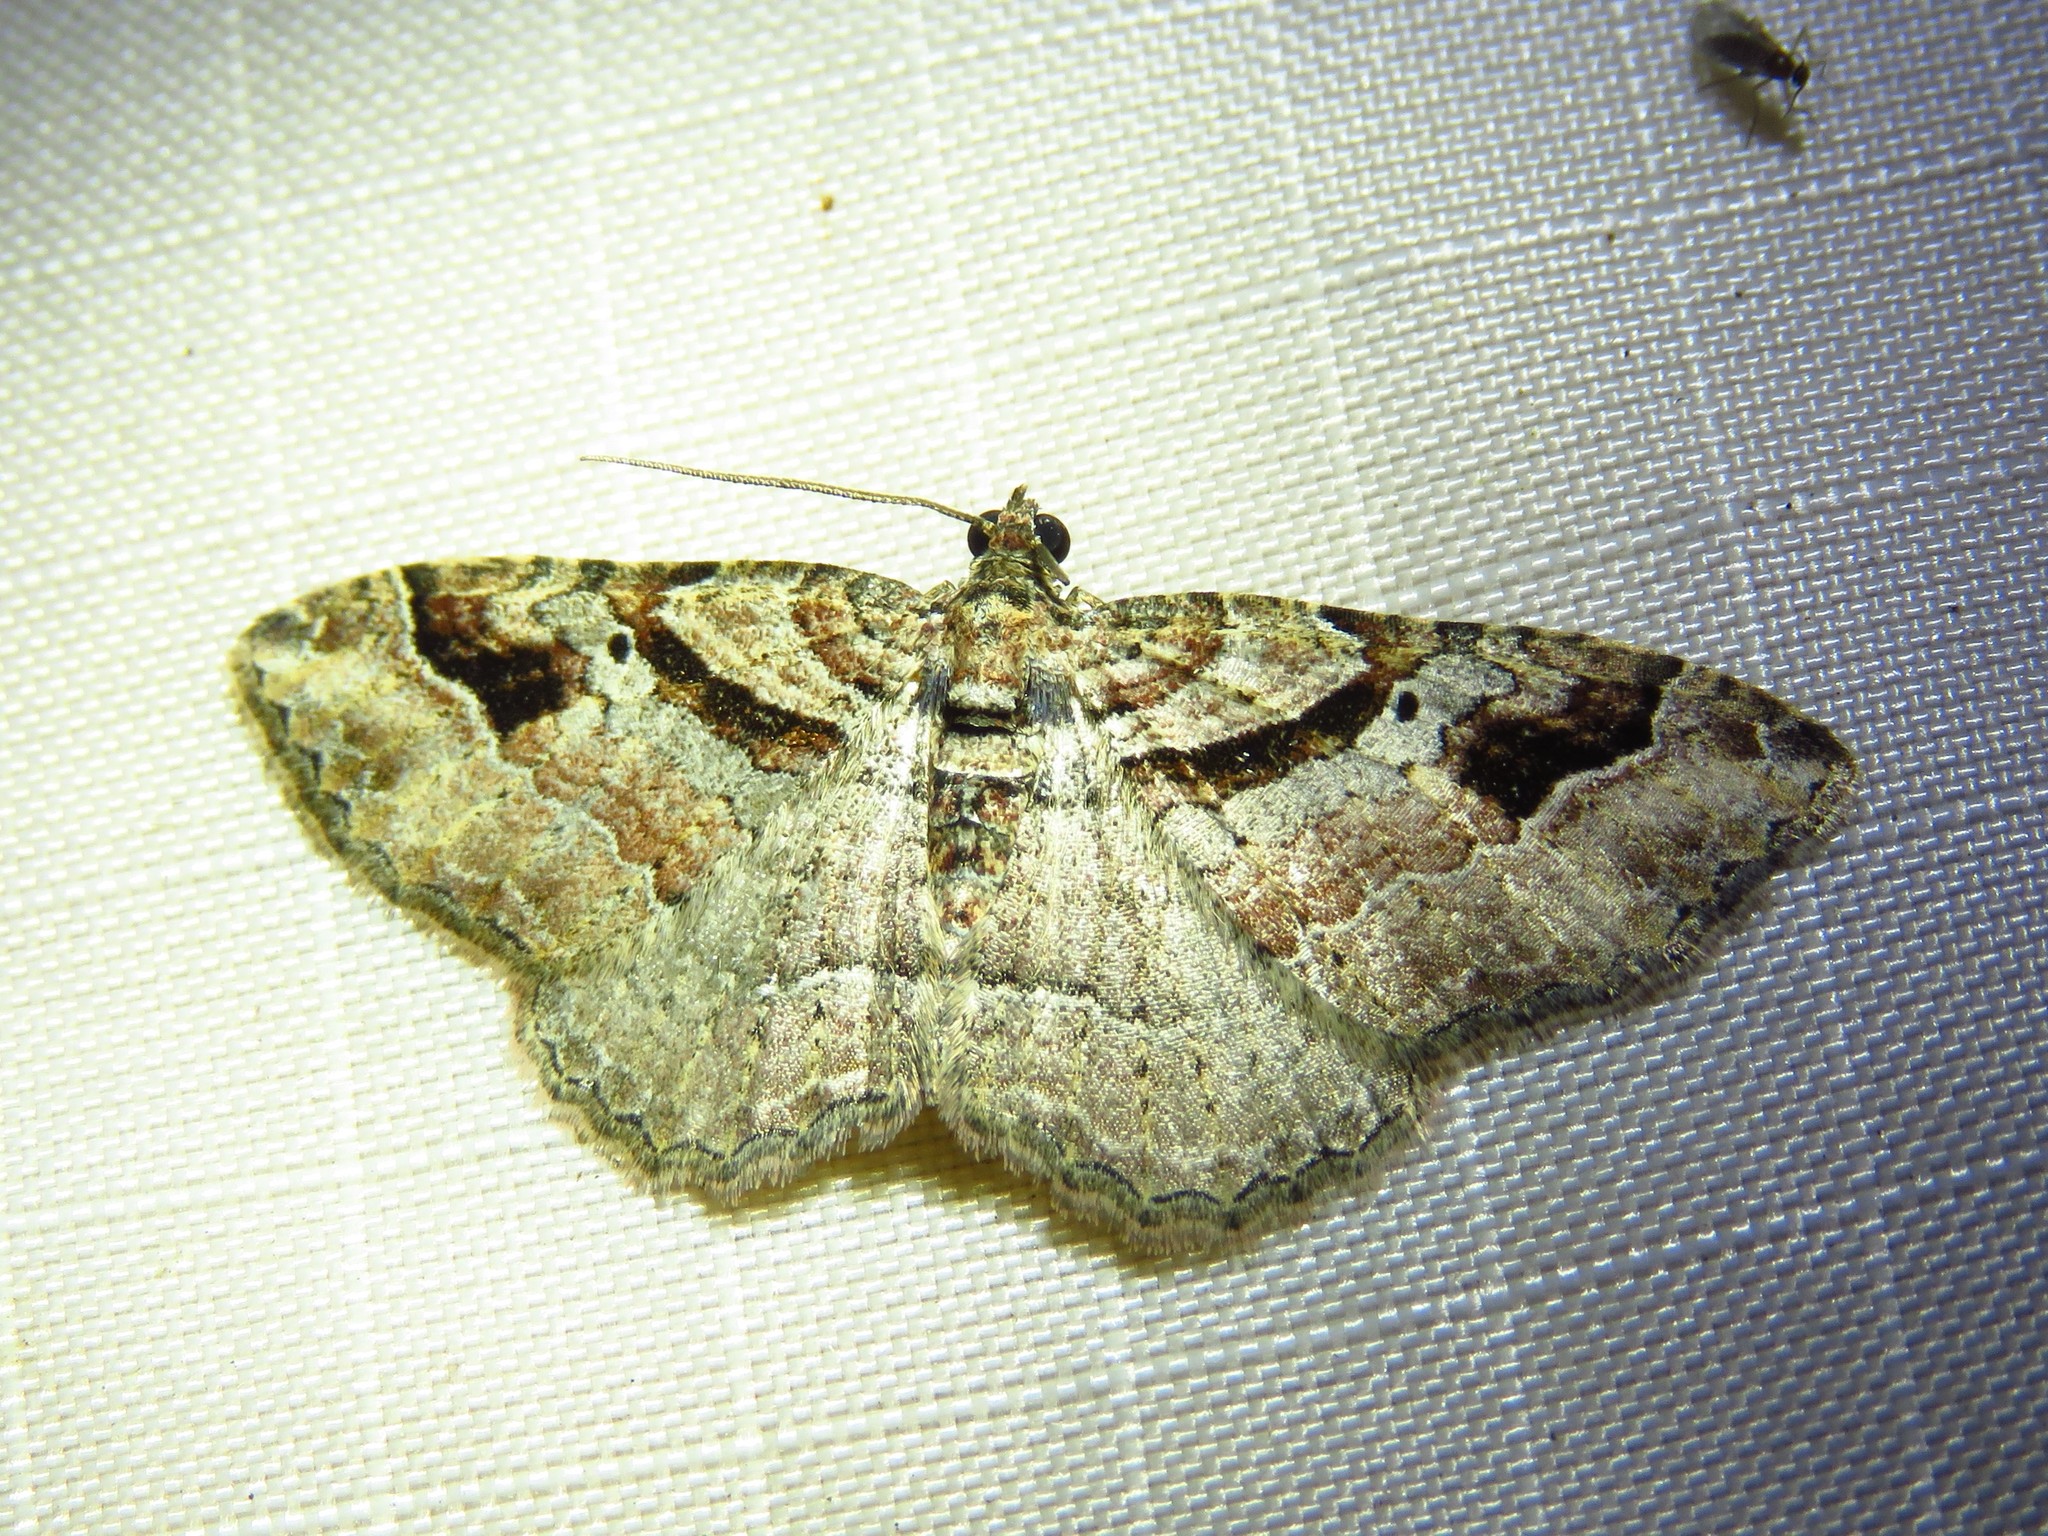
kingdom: Animalia
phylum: Arthropoda
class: Insecta
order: Lepidoptera
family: Geometridae
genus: Costaconvexa
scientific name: Costaconvexa centrostrigaria
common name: Bent-line carpet
